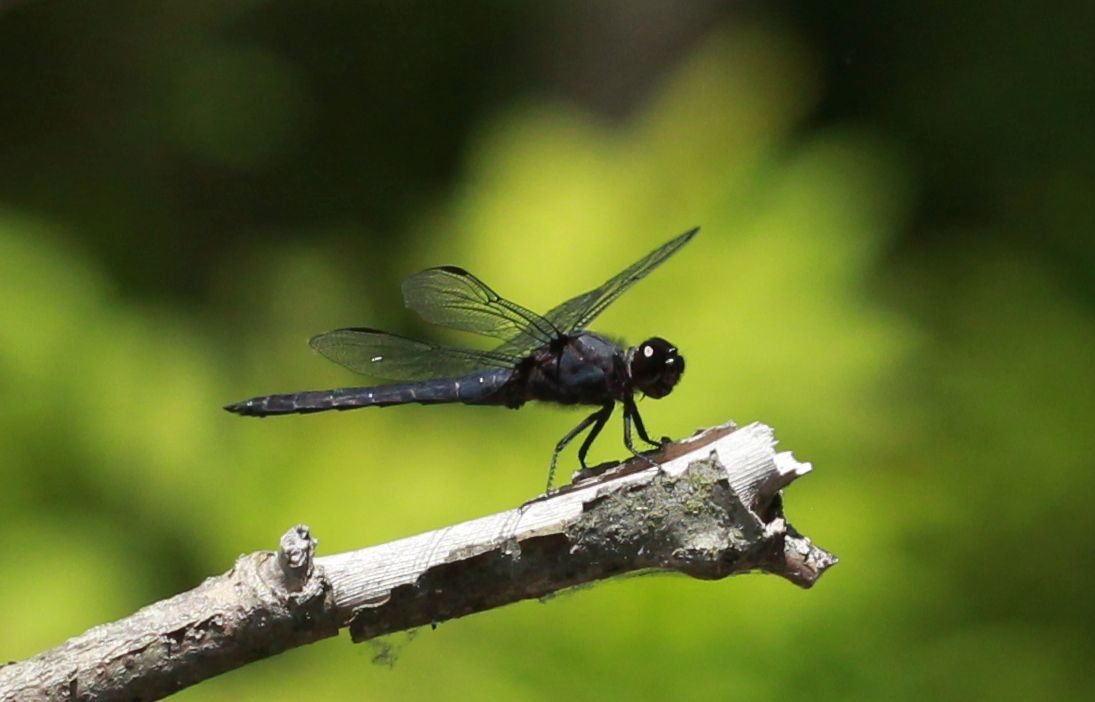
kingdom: Animalia
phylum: Arthropoda
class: Insecta
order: Odonata
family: Libellulidae
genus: Libellula
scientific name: Libellula incesta
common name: Slaty skimmer
